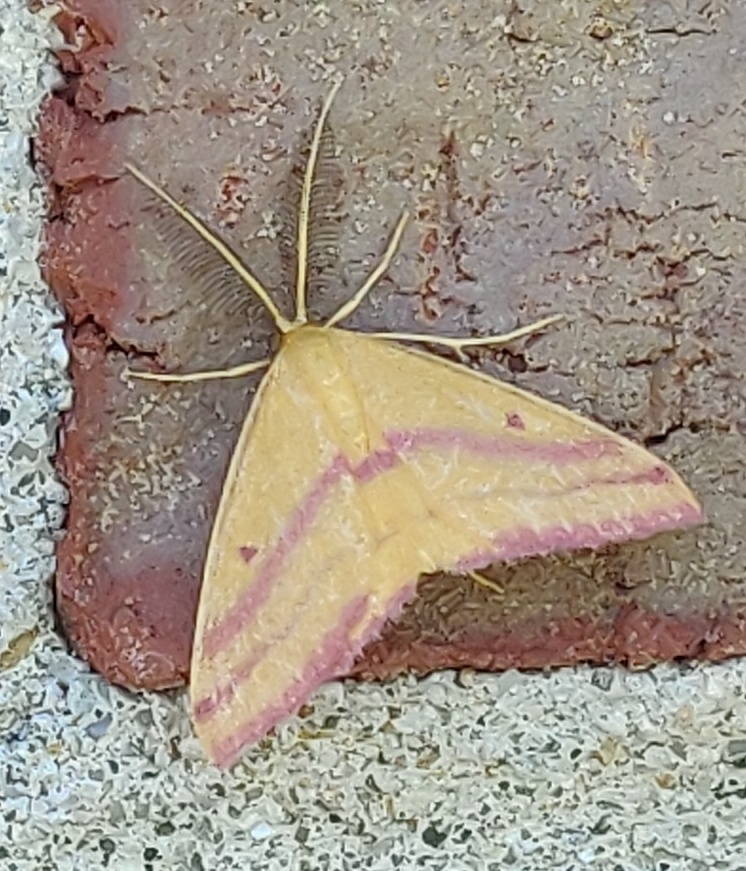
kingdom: Animalia
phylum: Arthropoda
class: Insecta
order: Lepidoptera
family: Geometridae
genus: Haematopis
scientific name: Haematopis grataria
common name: Chickweed geometer
